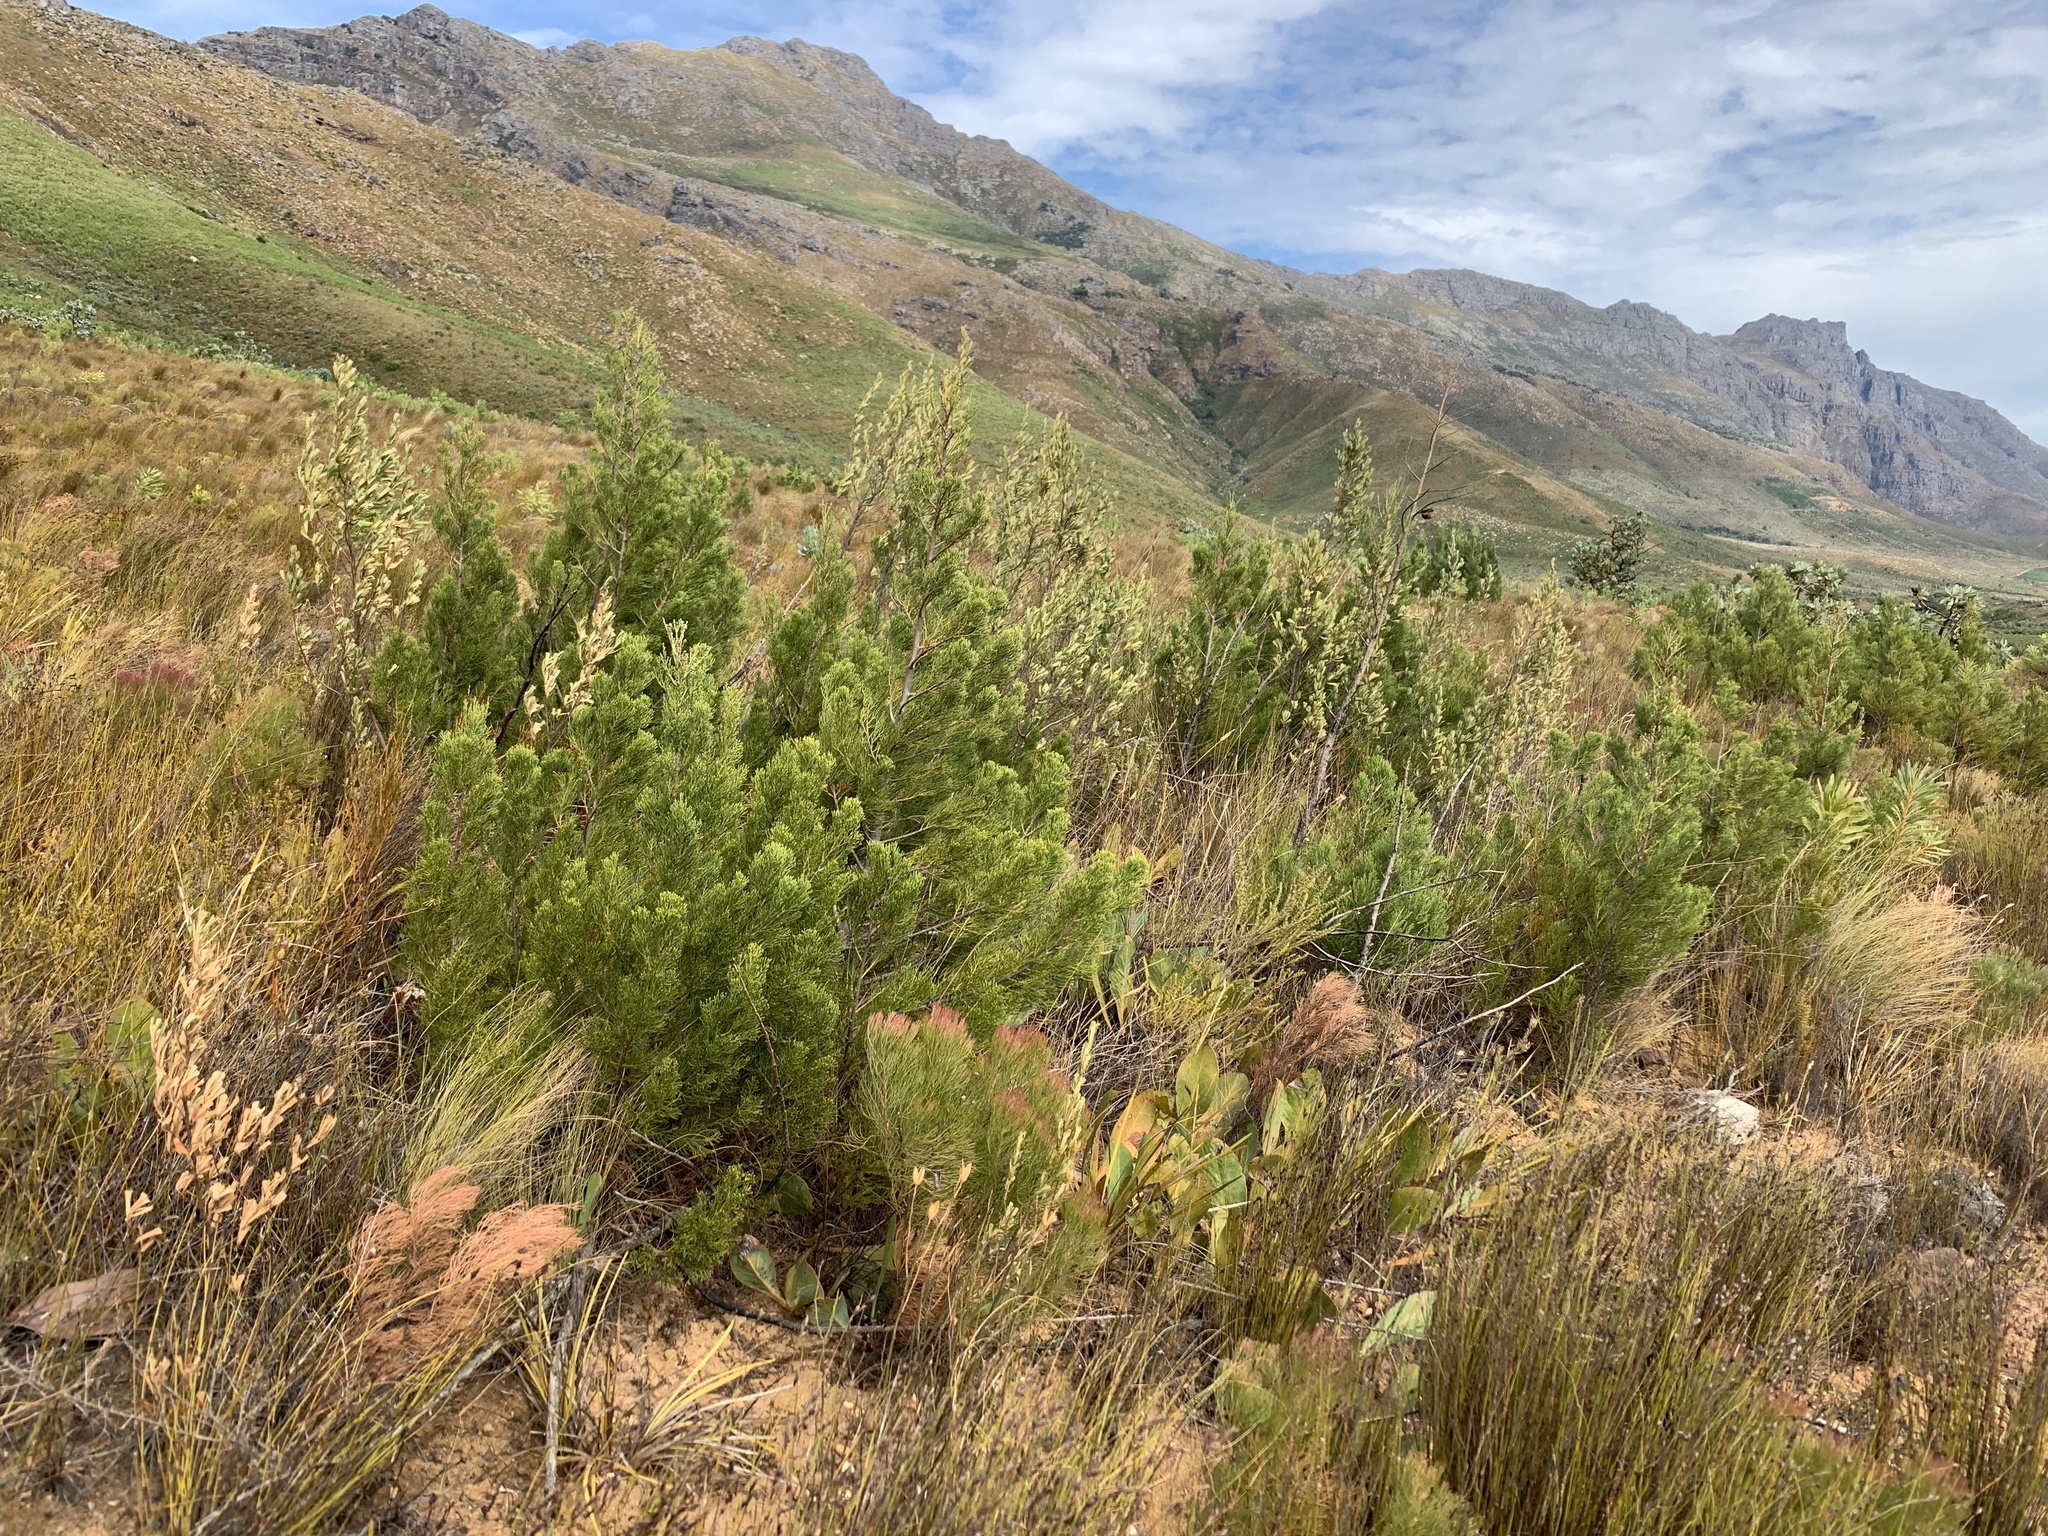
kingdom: Plantae
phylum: Tracheophyta
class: Pinopsida
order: Pinales
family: Cupressaceae
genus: Widdringtonia
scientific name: Widdringtonia nodiflora
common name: Cape cypress
